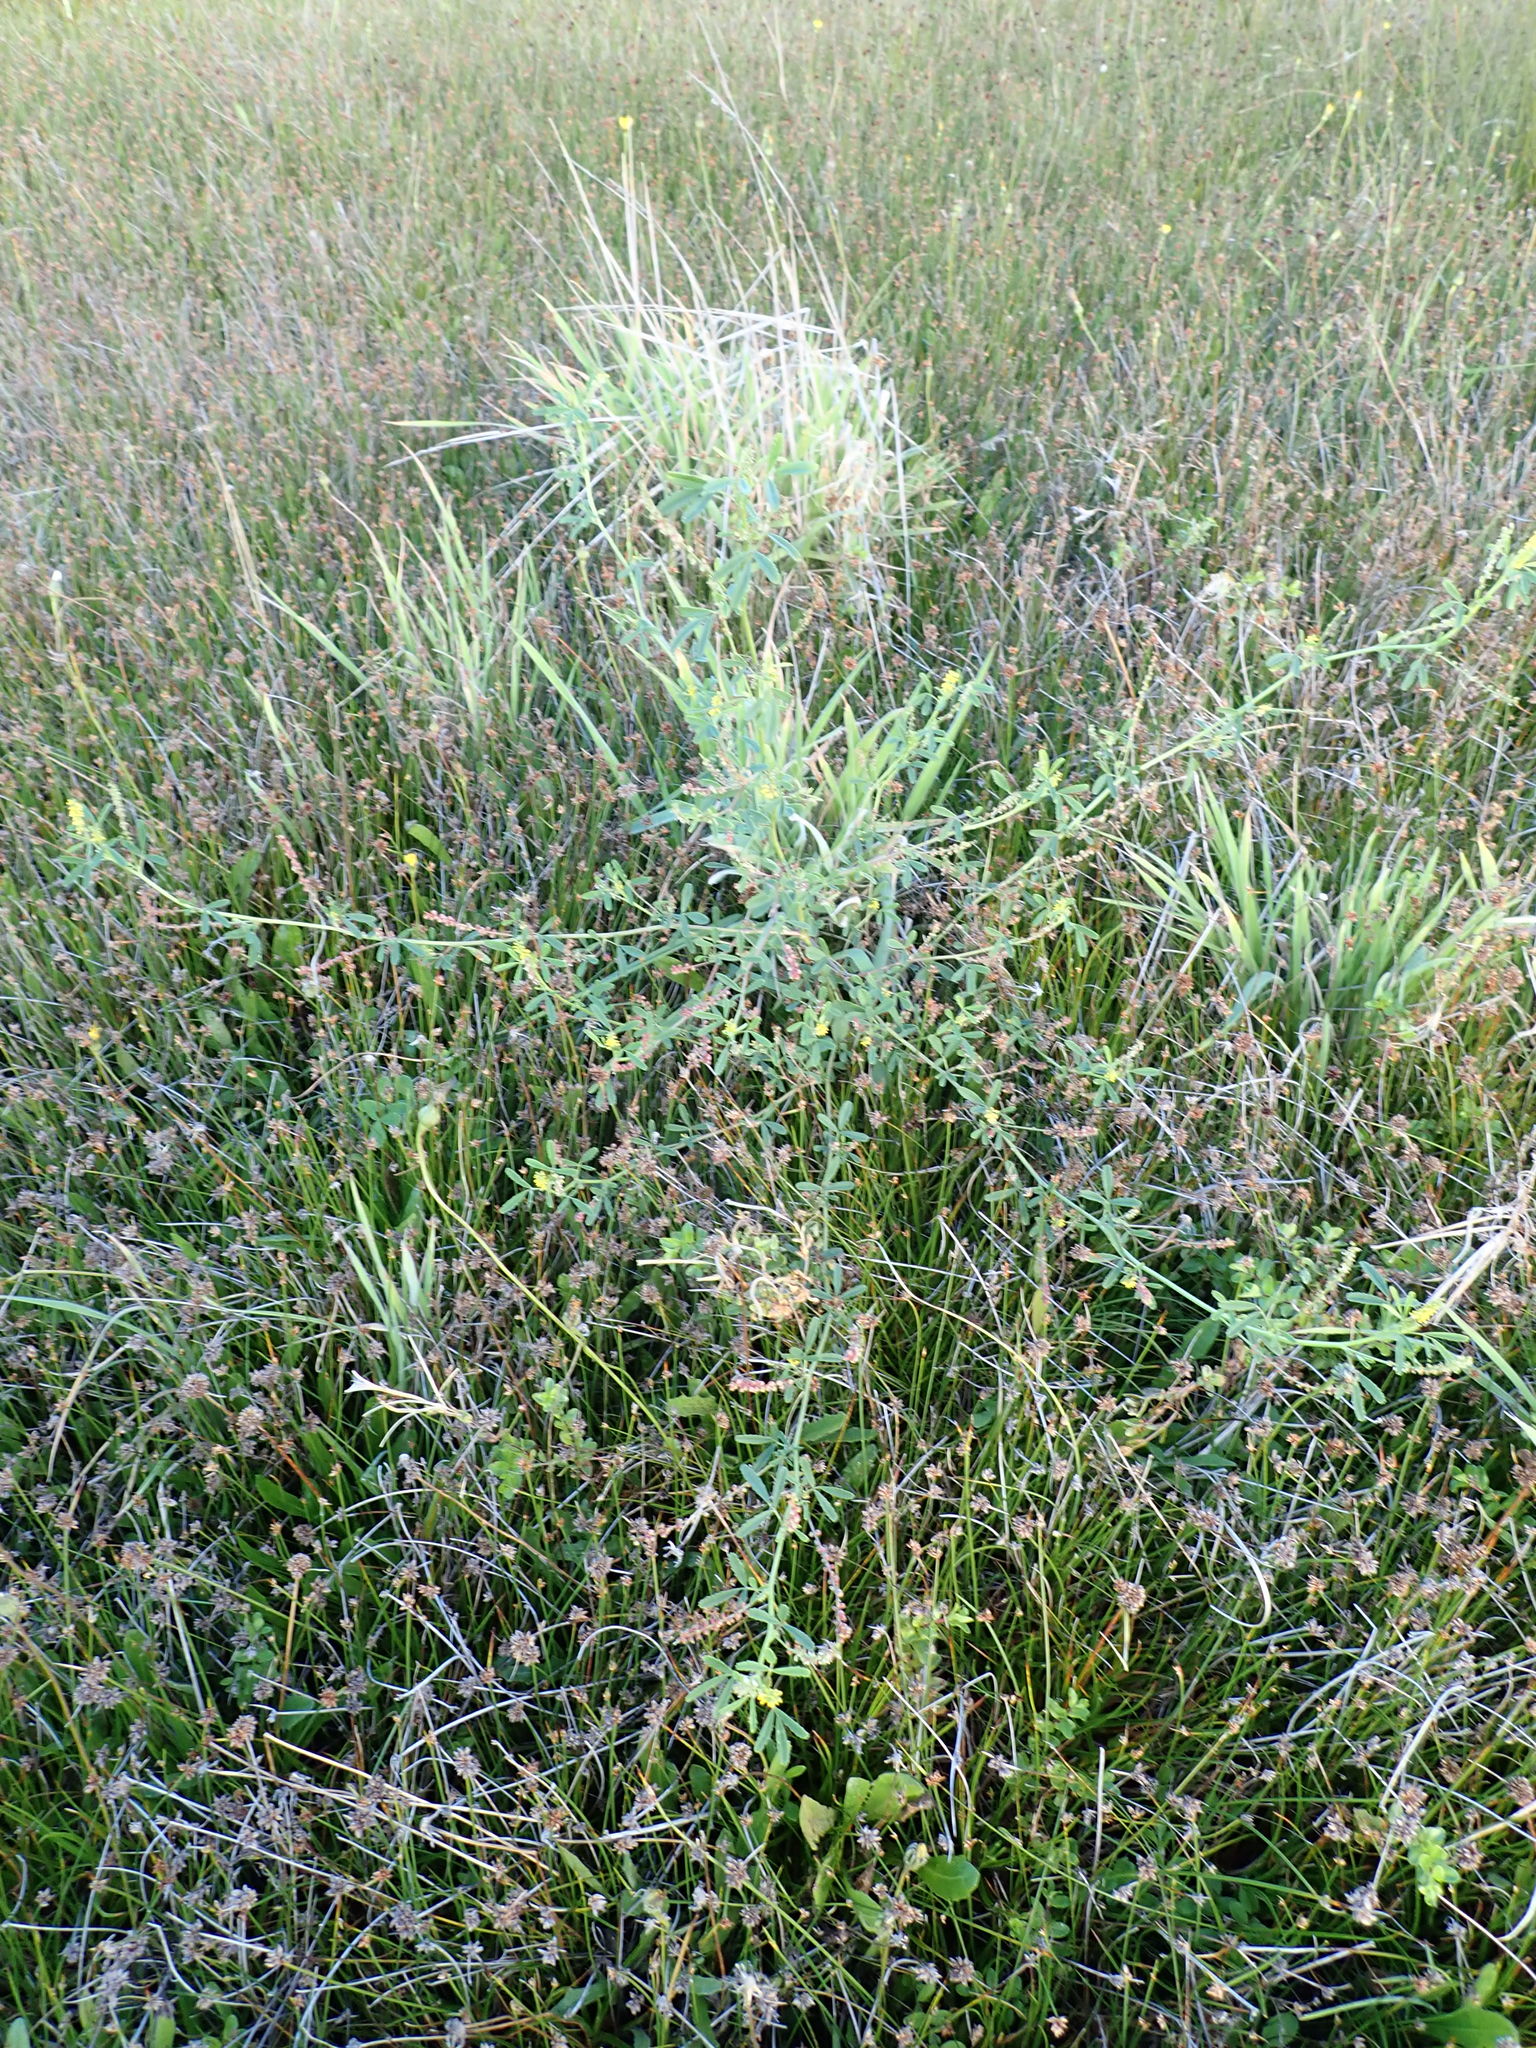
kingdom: Plantae
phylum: Tracheophyta
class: Magnoliopsida
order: Fabales
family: Fabaceae
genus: Melilotus
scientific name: Melilotus indicus
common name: Small melilot
